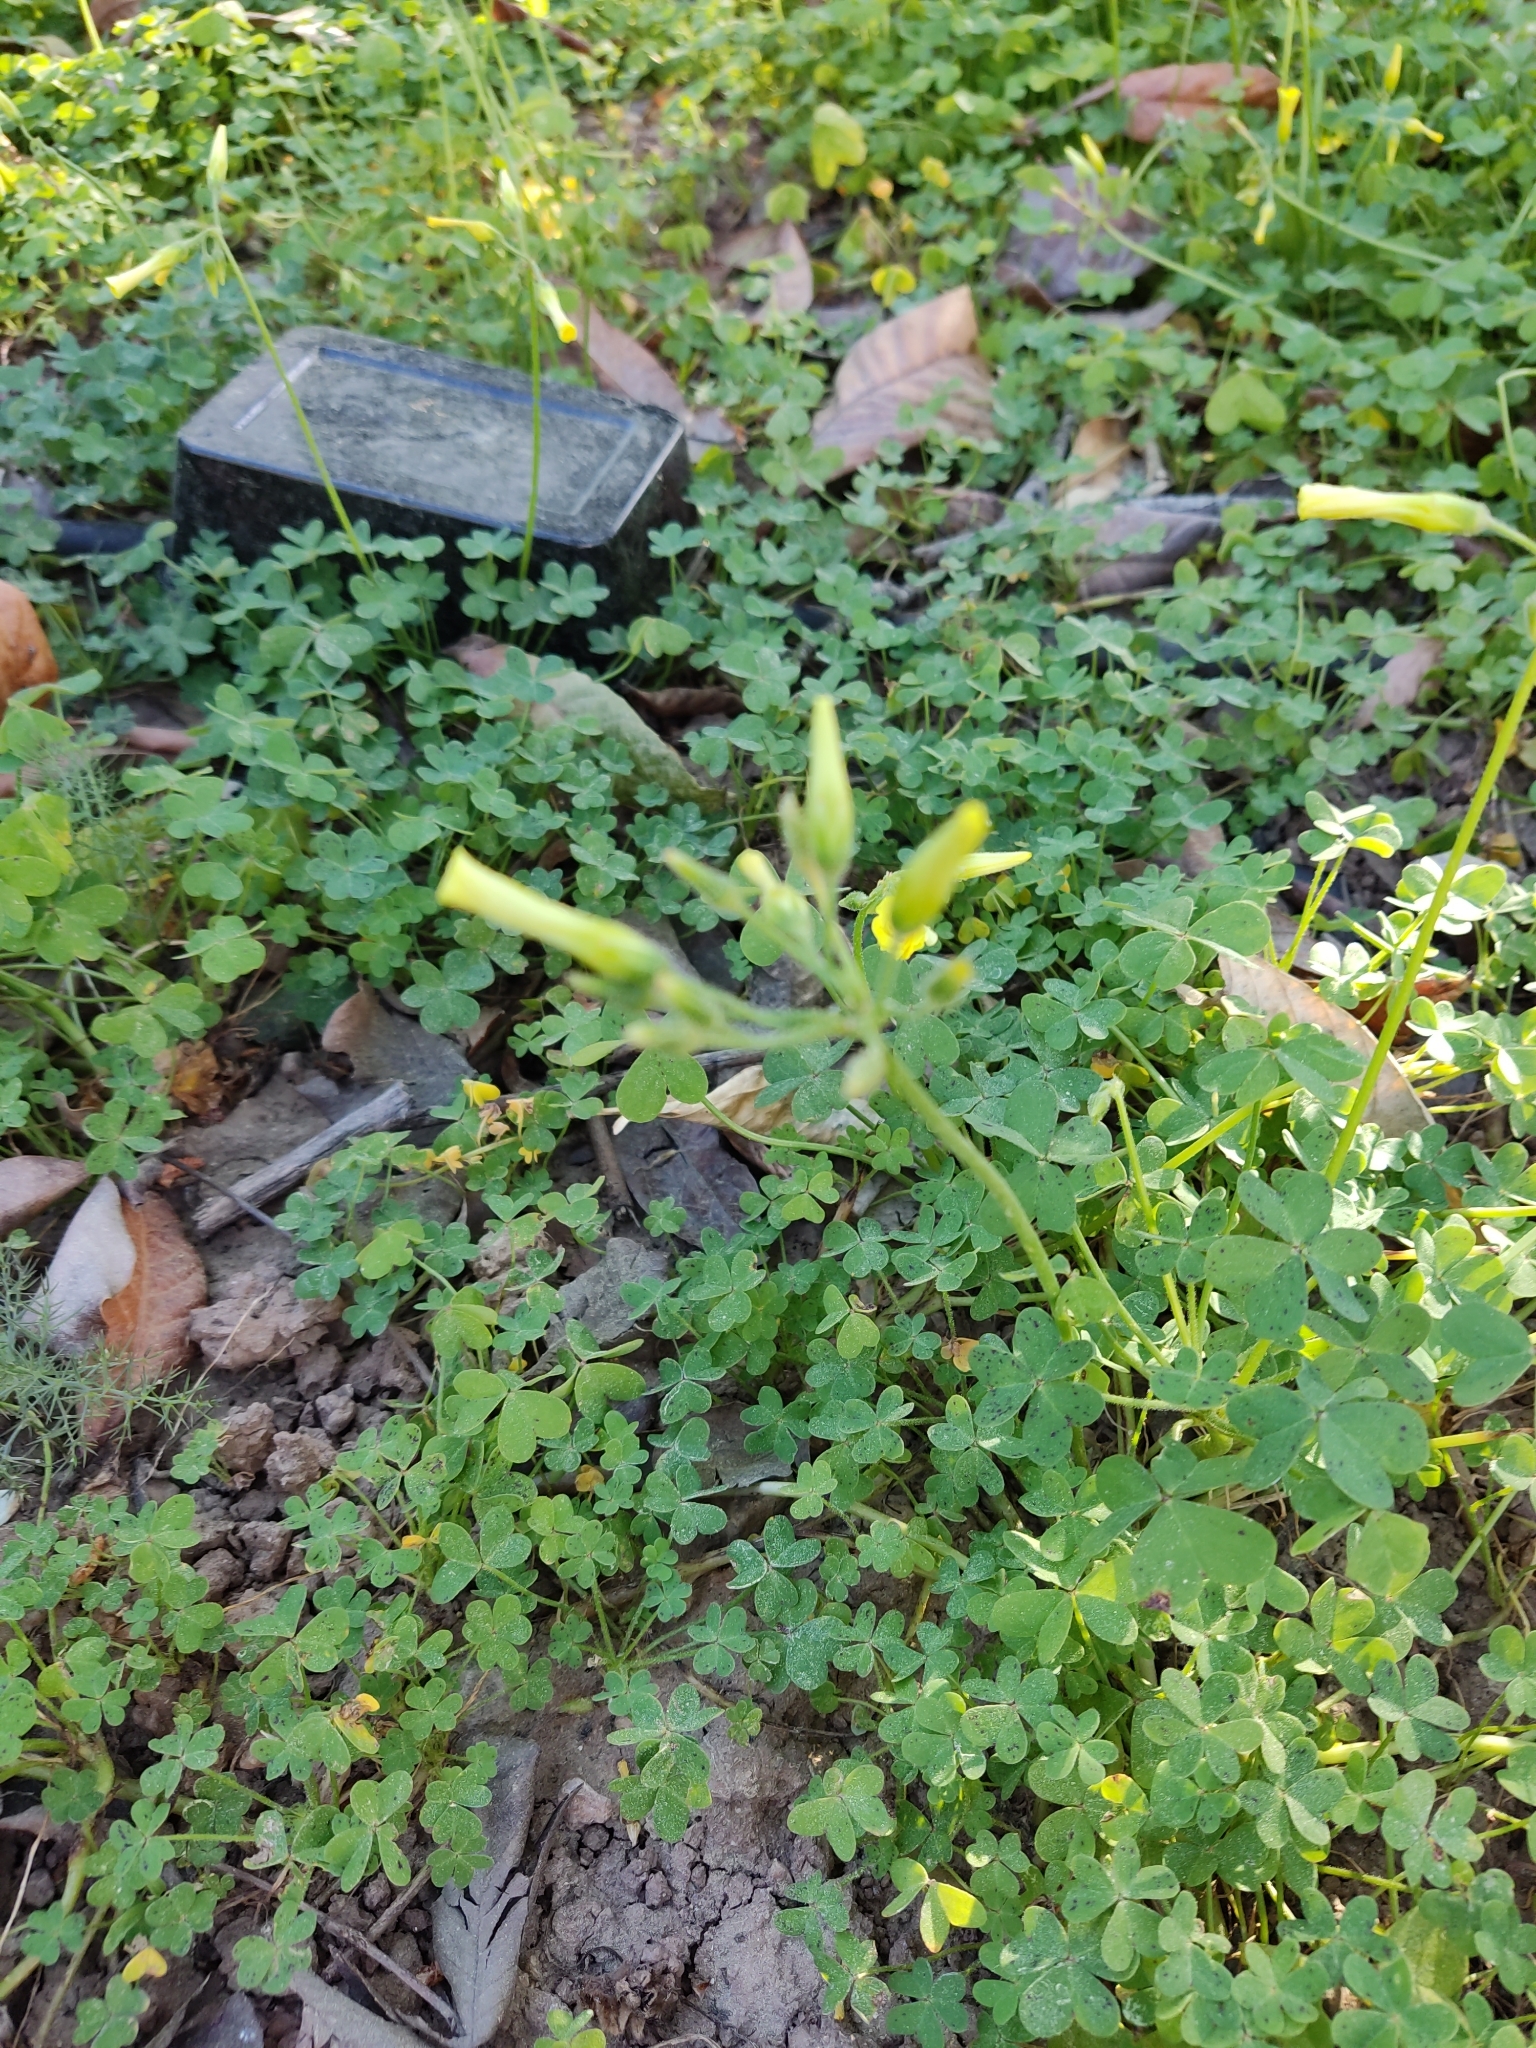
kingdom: Plantae
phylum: Tracheophyta
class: Magnoliopsida
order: Oxalidales
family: Oxalidaceae
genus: Oxalis
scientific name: Oxalis pes-caprae
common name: Bermuda-buttercup
